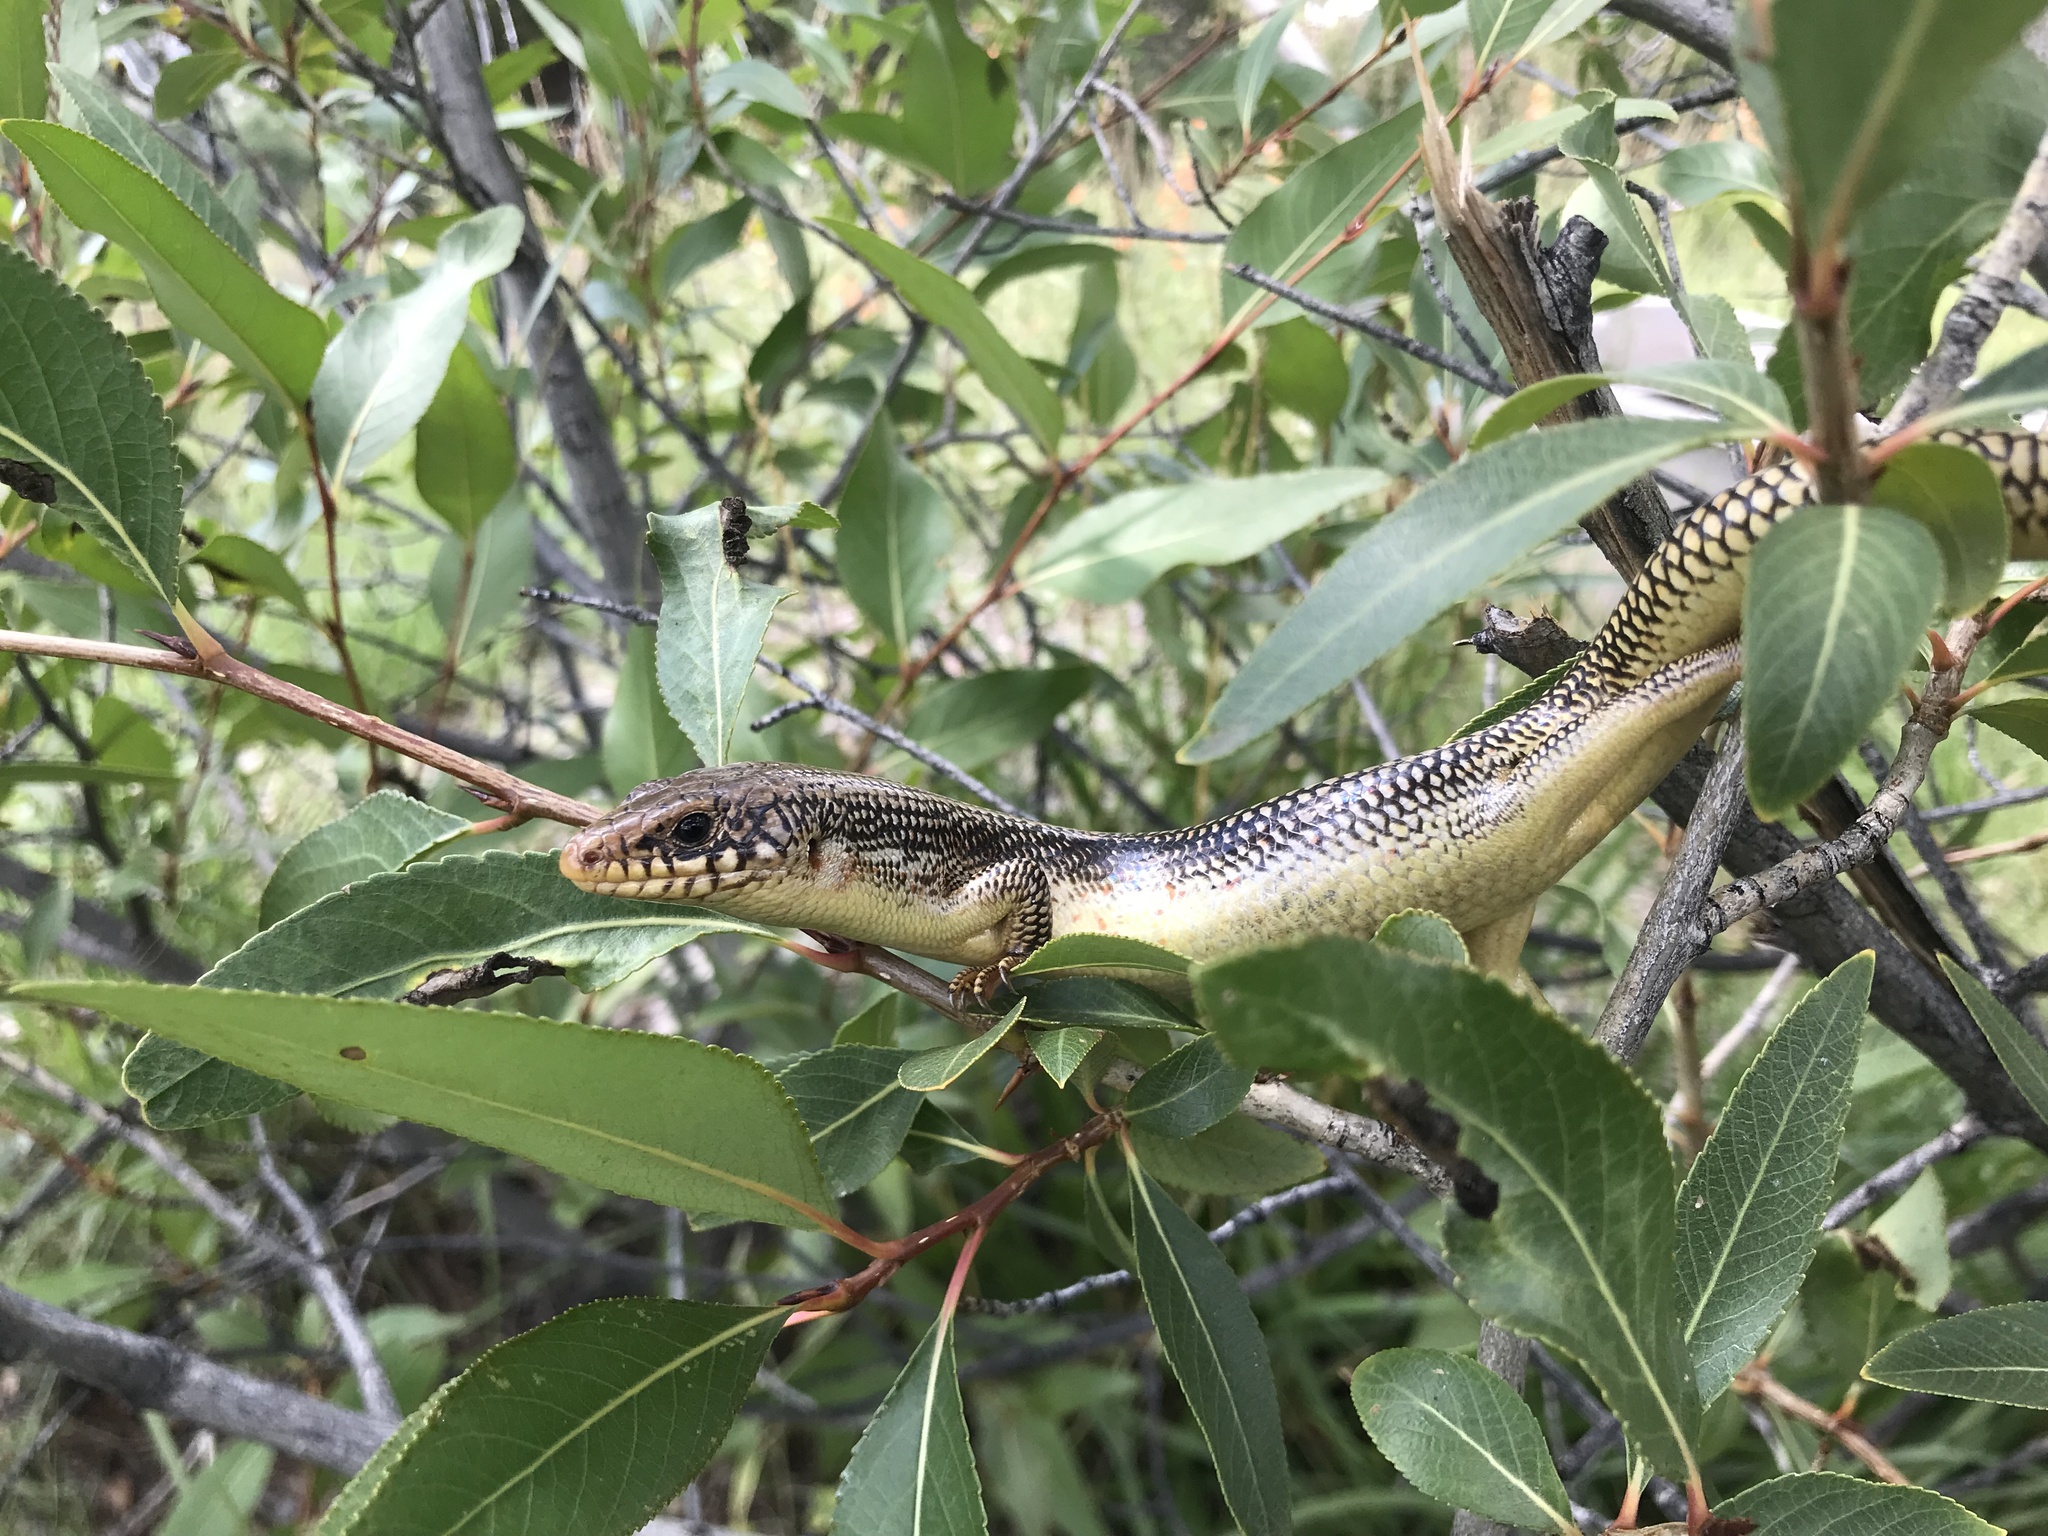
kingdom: Animalia
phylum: Chordata
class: Squamata
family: Scincidae
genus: Plestiodon
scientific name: Plestiodon obsoletus
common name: Great plains skink
